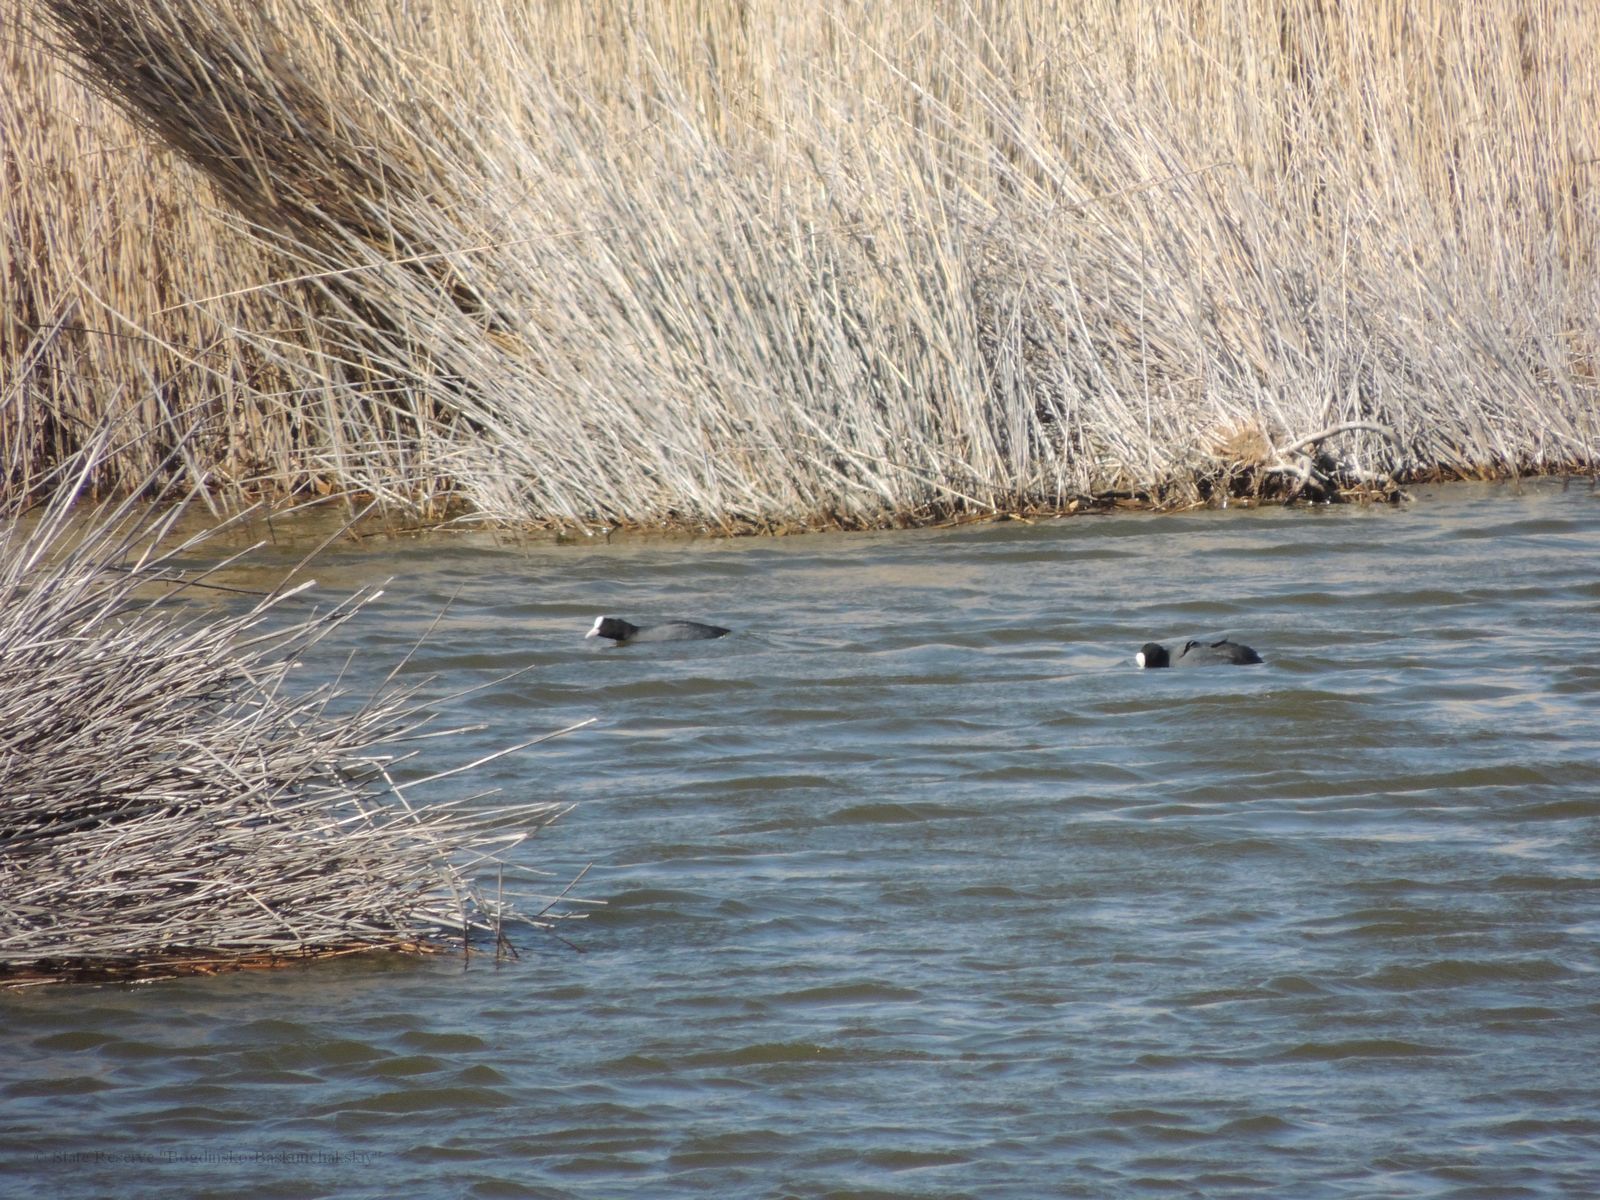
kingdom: Animalia
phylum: Chordata
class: Aves
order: Gruiformes
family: Rallidae
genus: Fulica
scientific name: Fulica atra
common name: Eurasian coot
